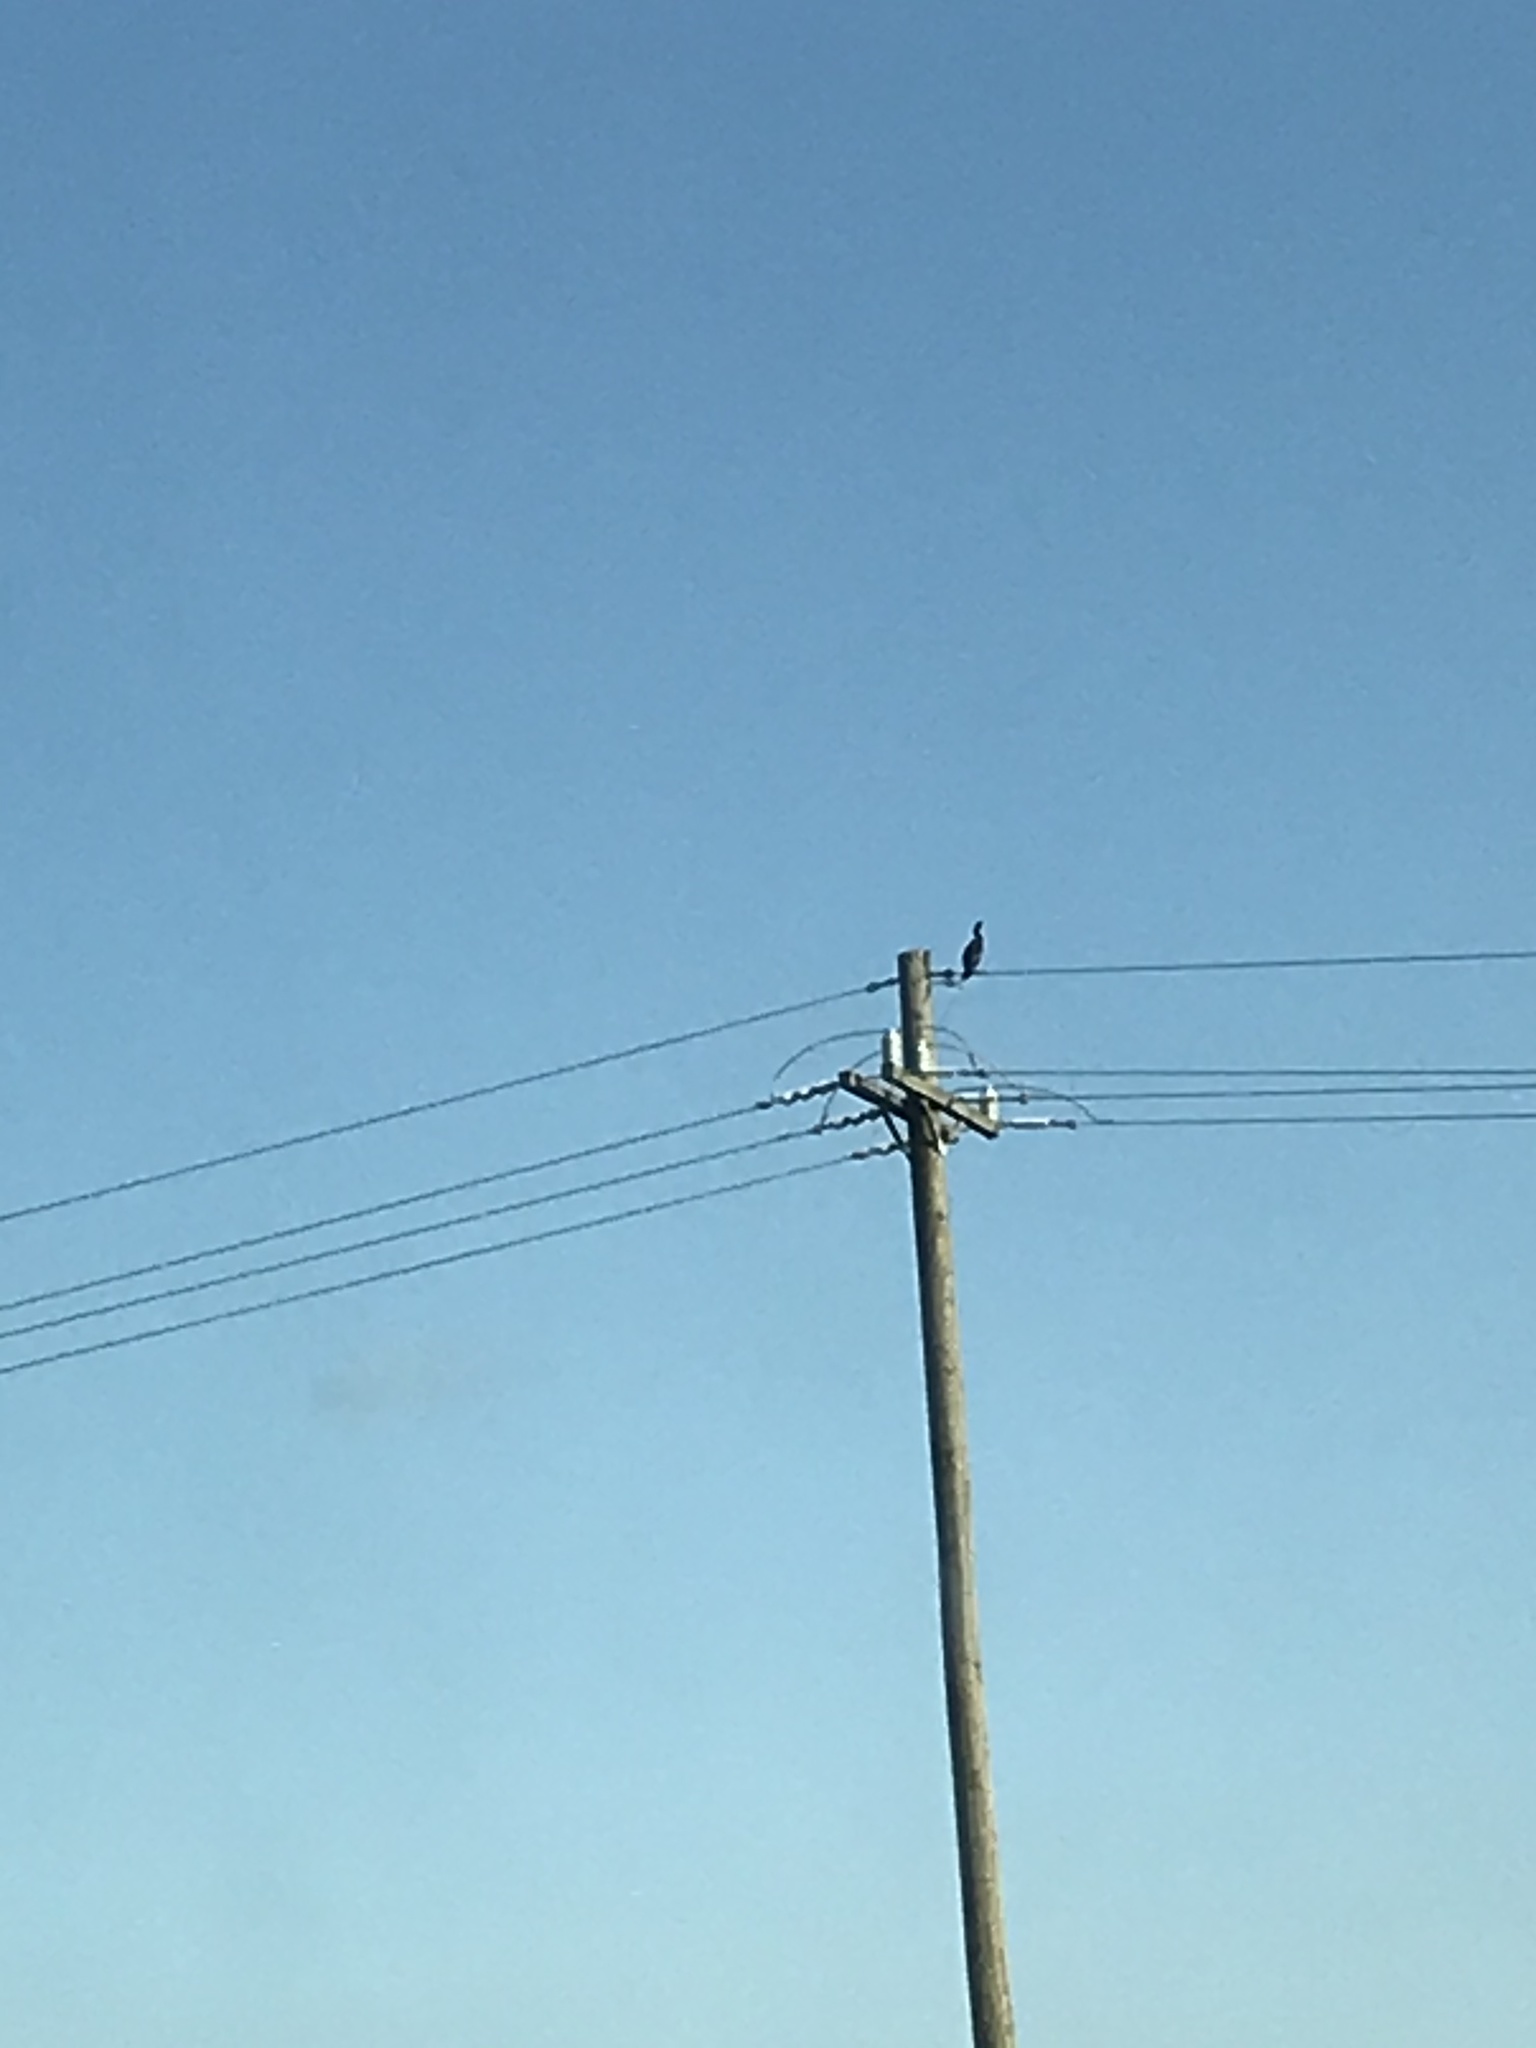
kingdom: Animalia
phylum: Chordata
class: Aves
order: Suliformes
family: Phalacrocoracidae
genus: Phalacrocorax
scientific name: Phalacrocorax auritus
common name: Double-crested cormorant
